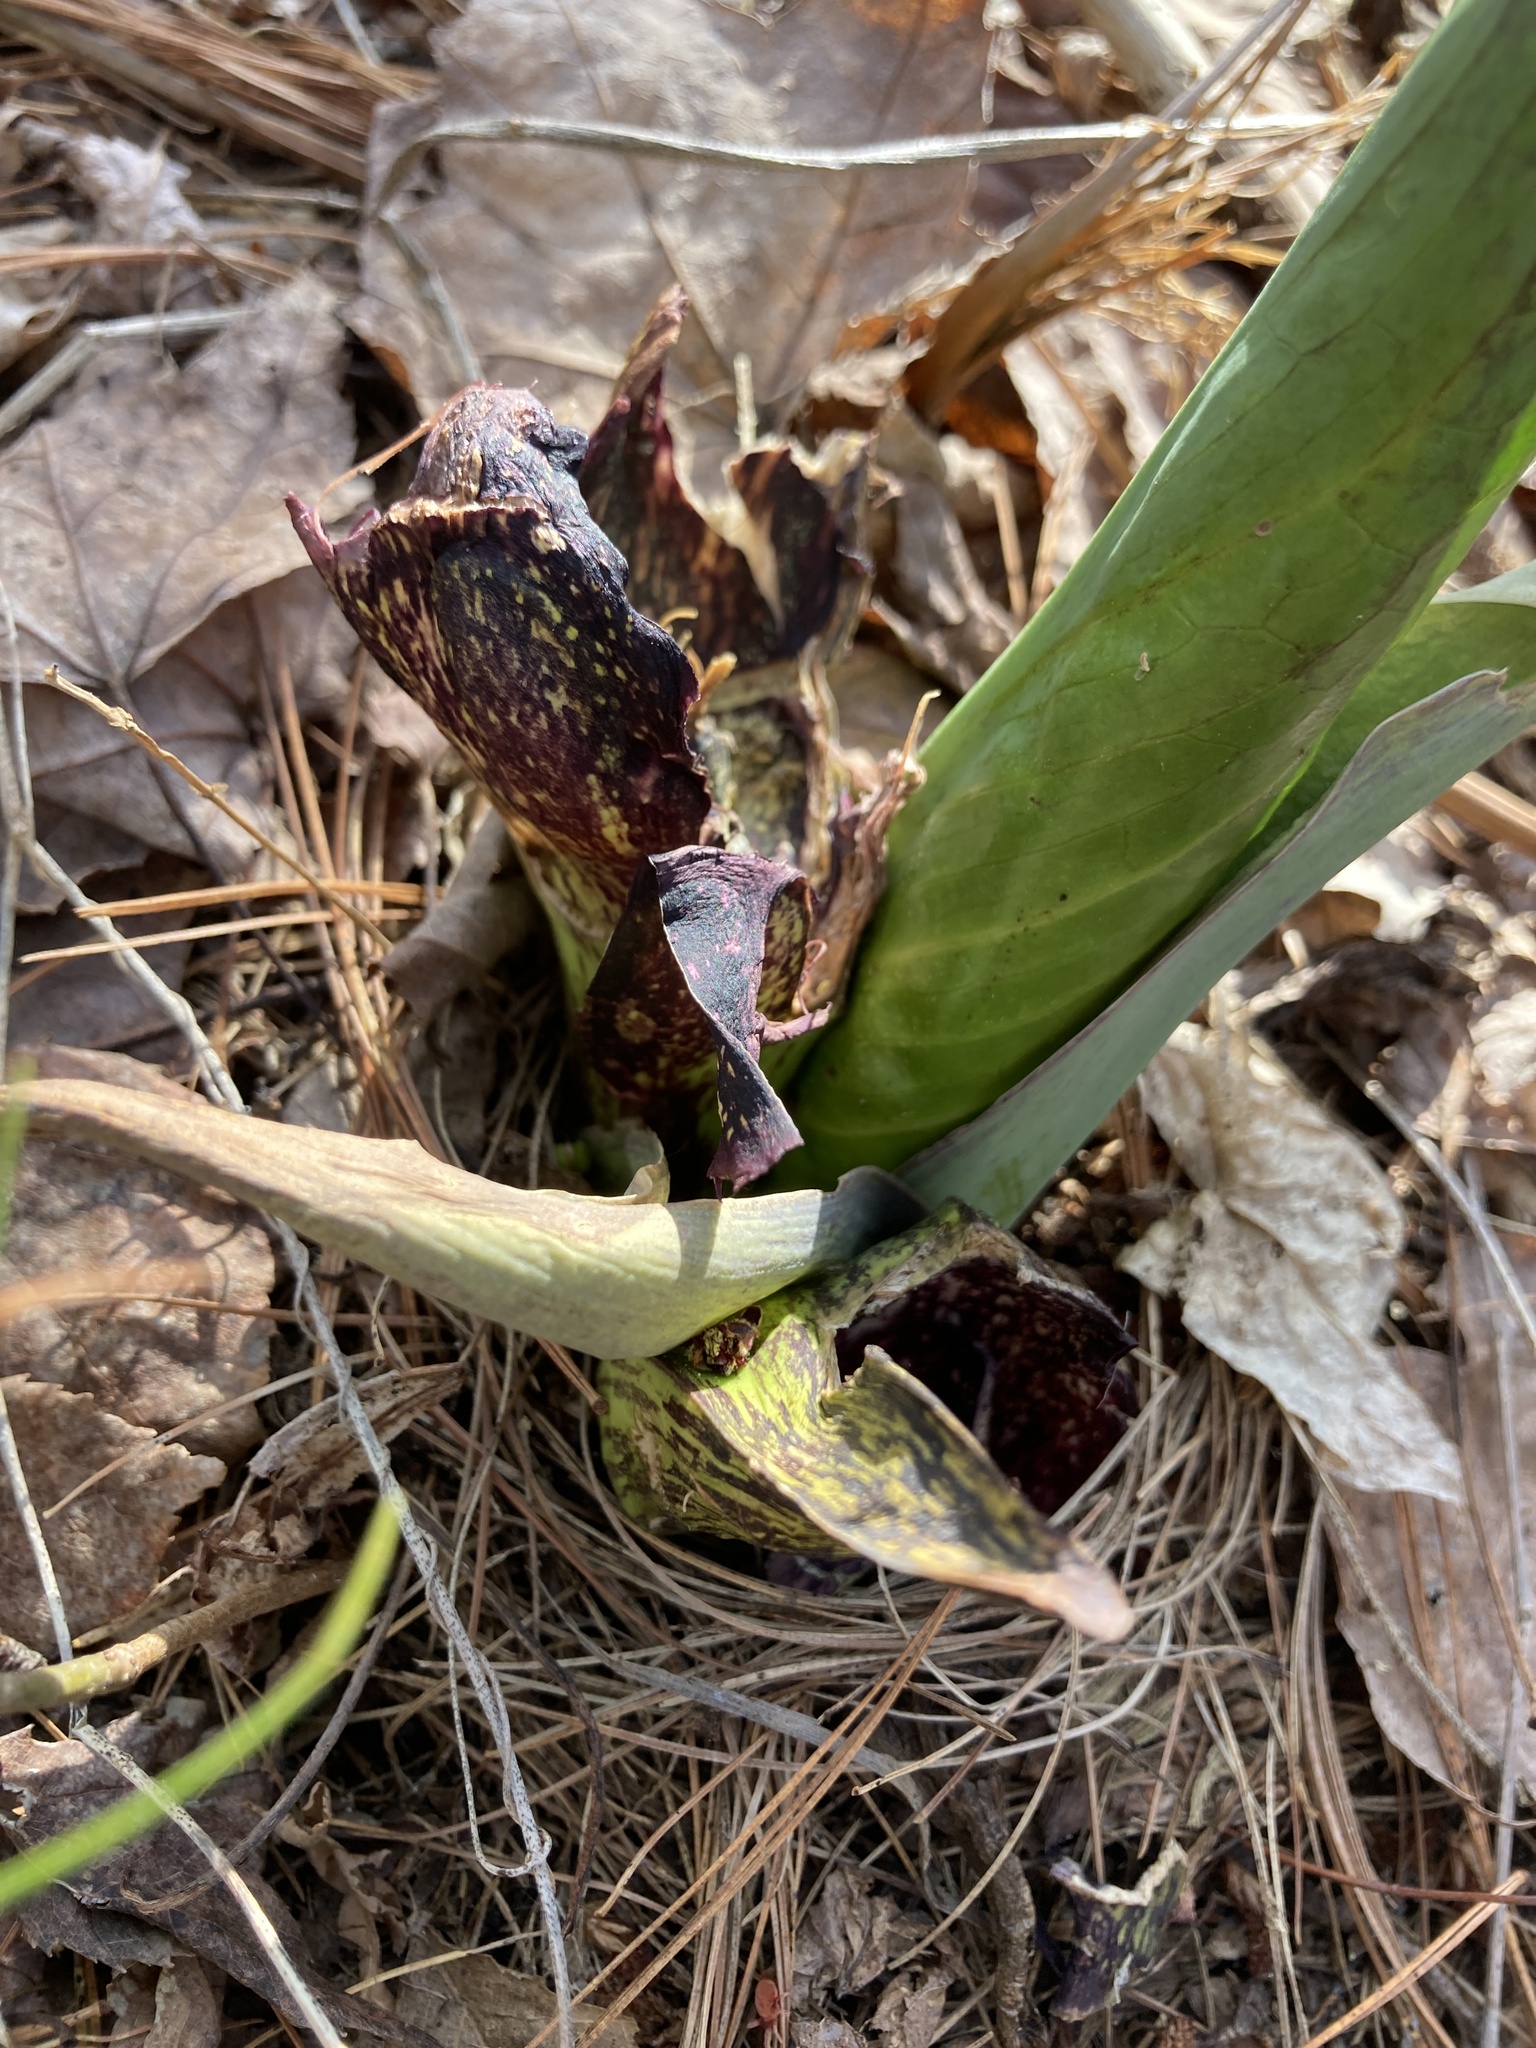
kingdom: Plantae
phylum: Tracheophyta
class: Liliopsida
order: Alismatales
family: Araceae
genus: Symplocarpus
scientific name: Symplocarpus foetidus
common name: Eastern skunk cabbage
